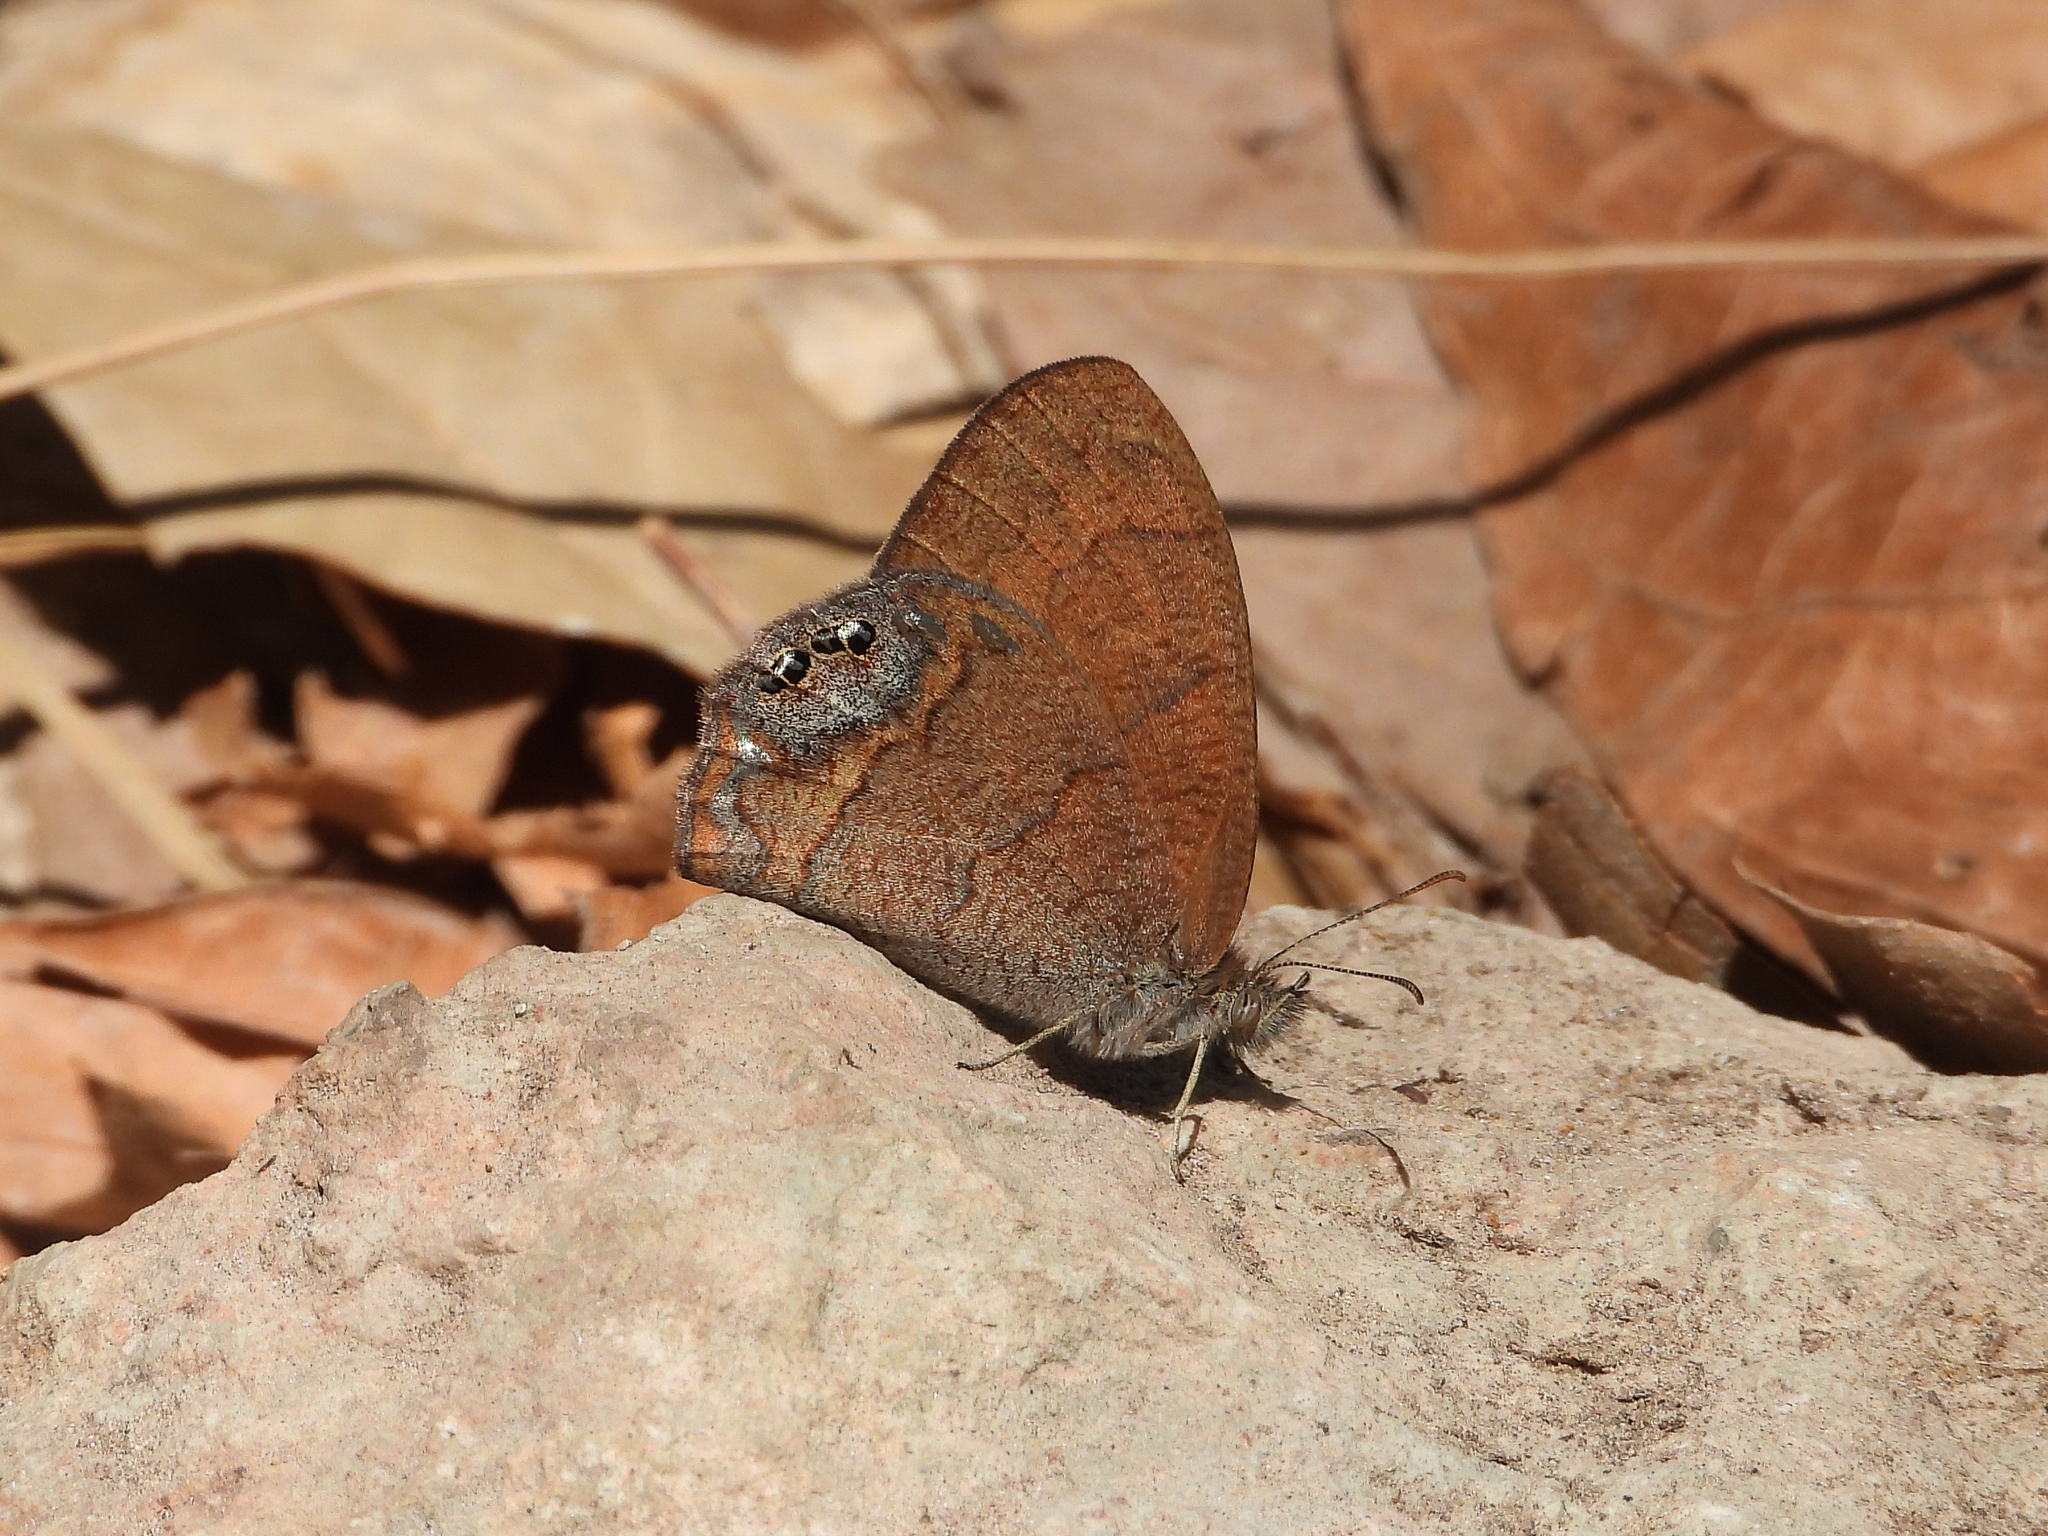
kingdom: Animalia
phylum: Arthropoda
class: Insecta
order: Lepidoptera
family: Nymphalidae
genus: Euptychia
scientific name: Euptychia Cyllopsis pertepida
